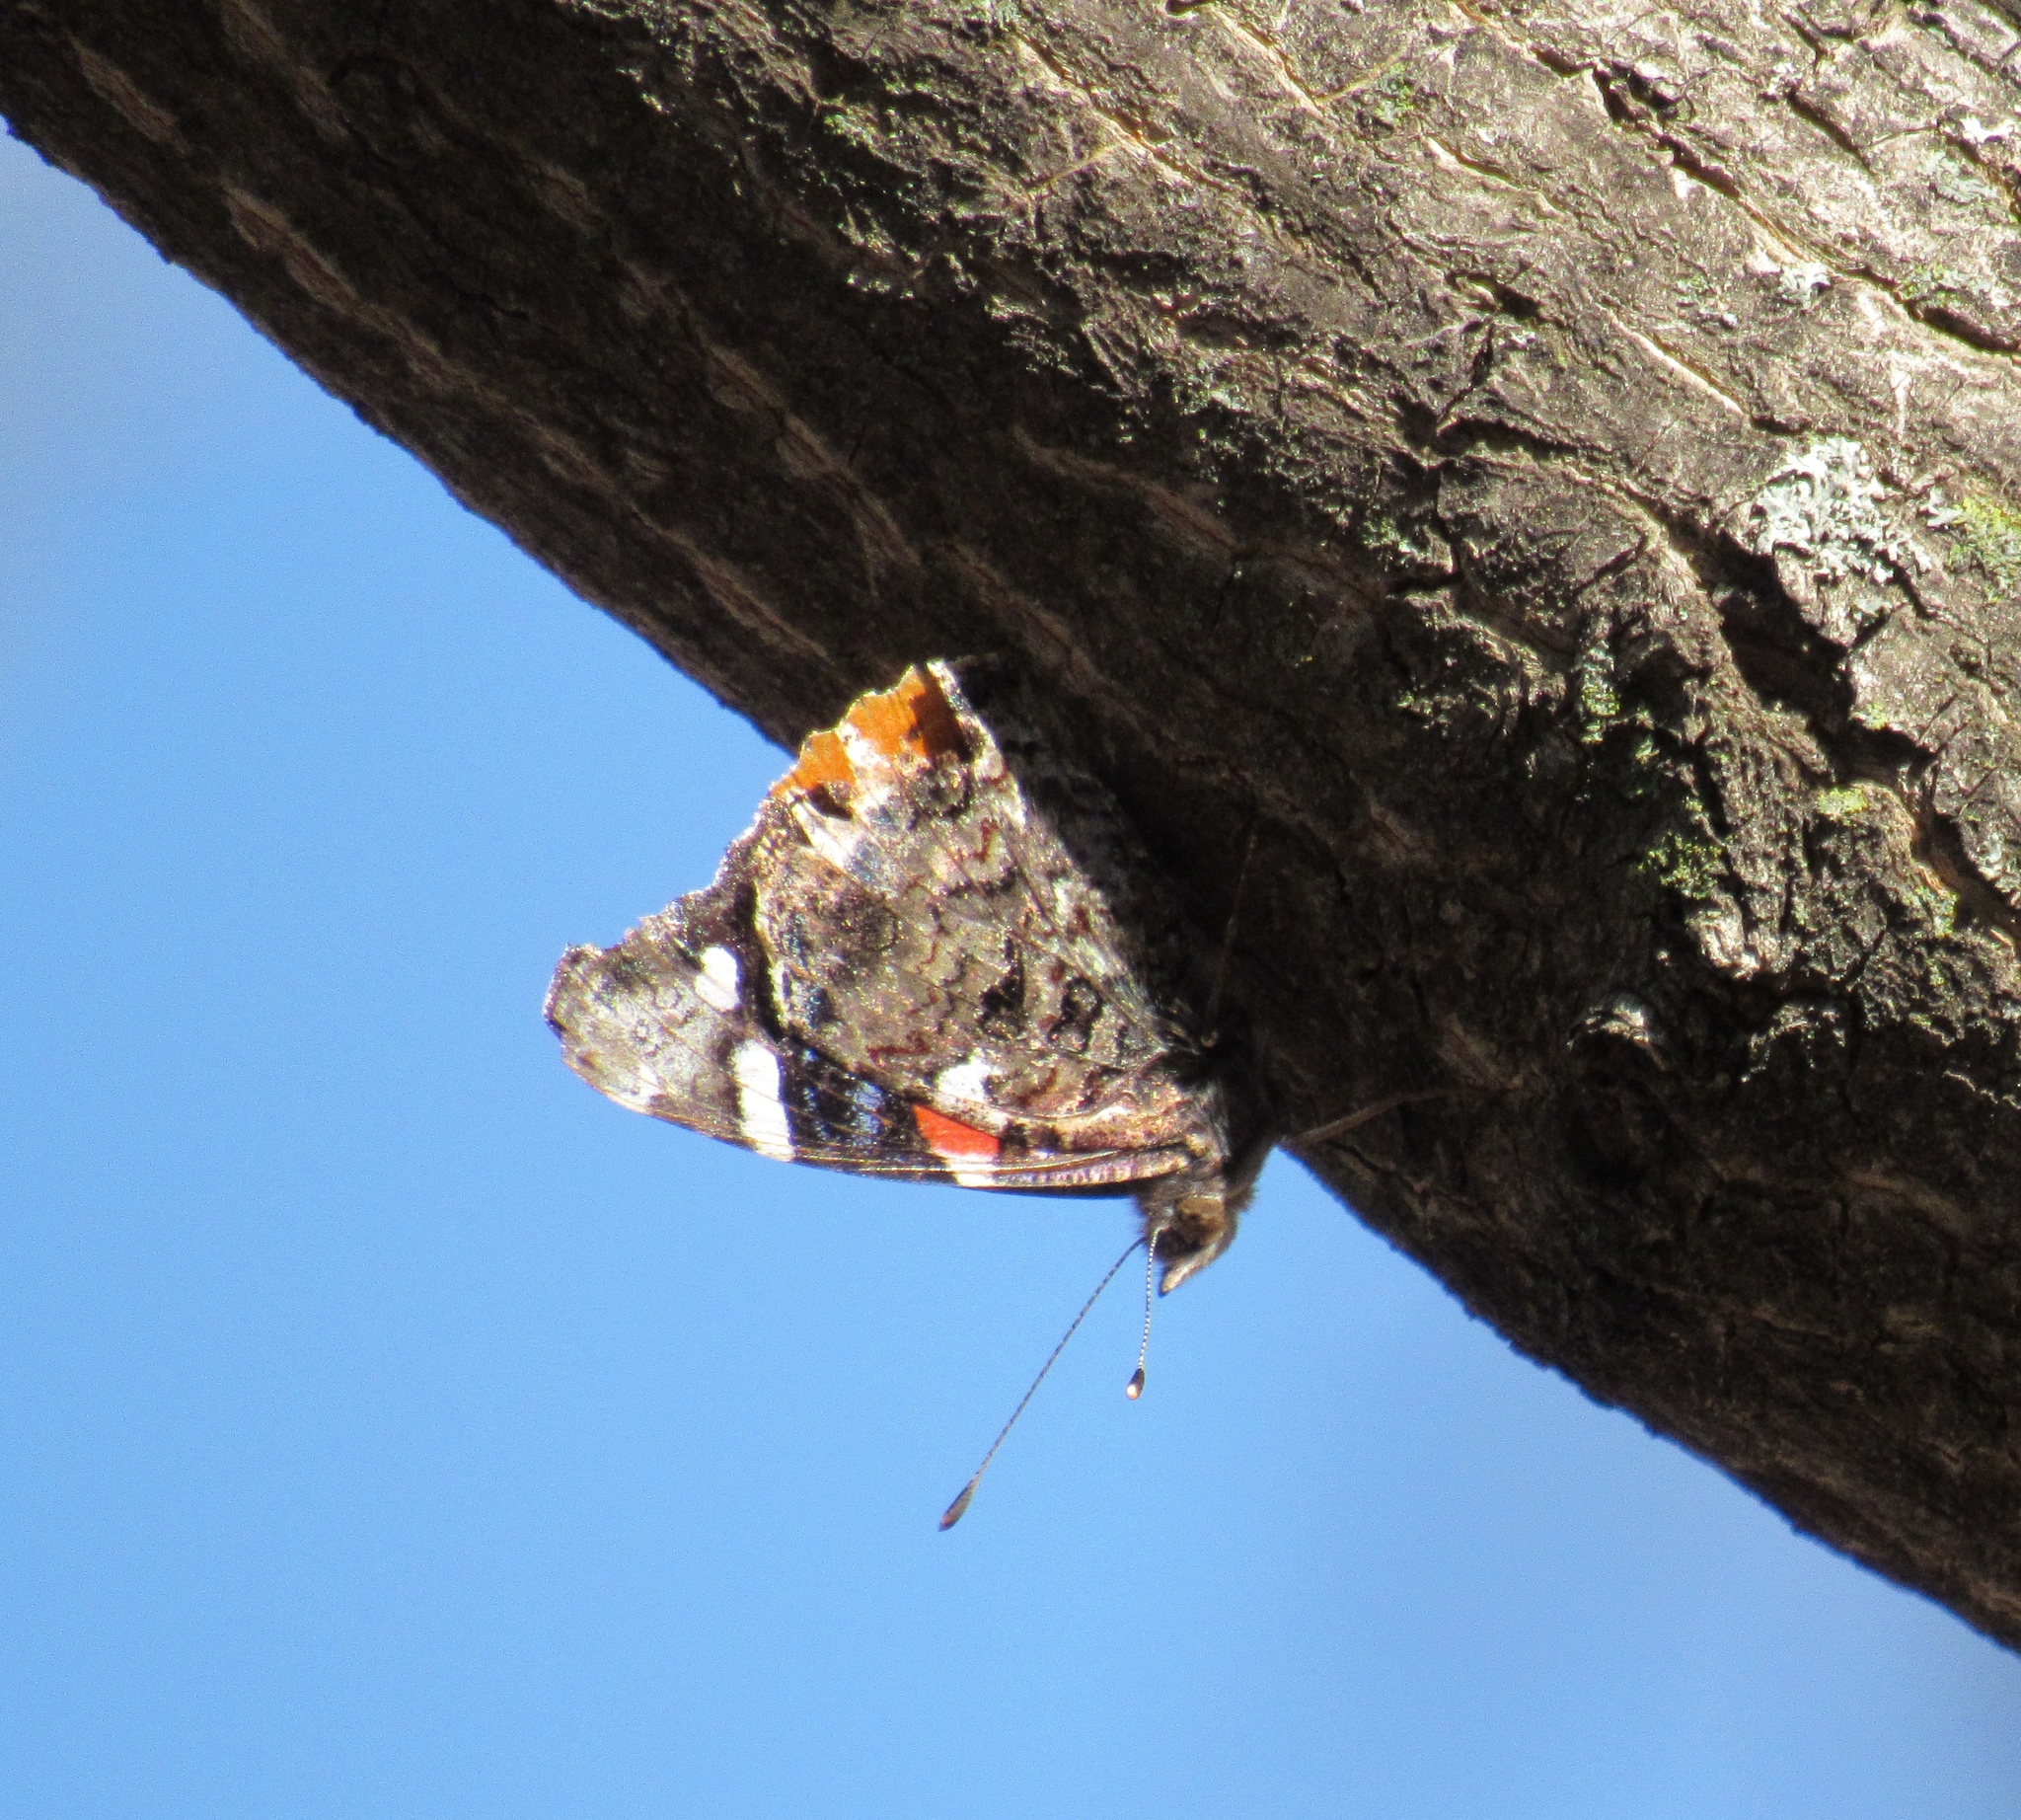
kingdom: Animalia
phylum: Arthropoda
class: Insecta
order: Lepidoptera
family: Nymphalidae
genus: Vanessa
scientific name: Vanessa atalanta
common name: Red admiral
